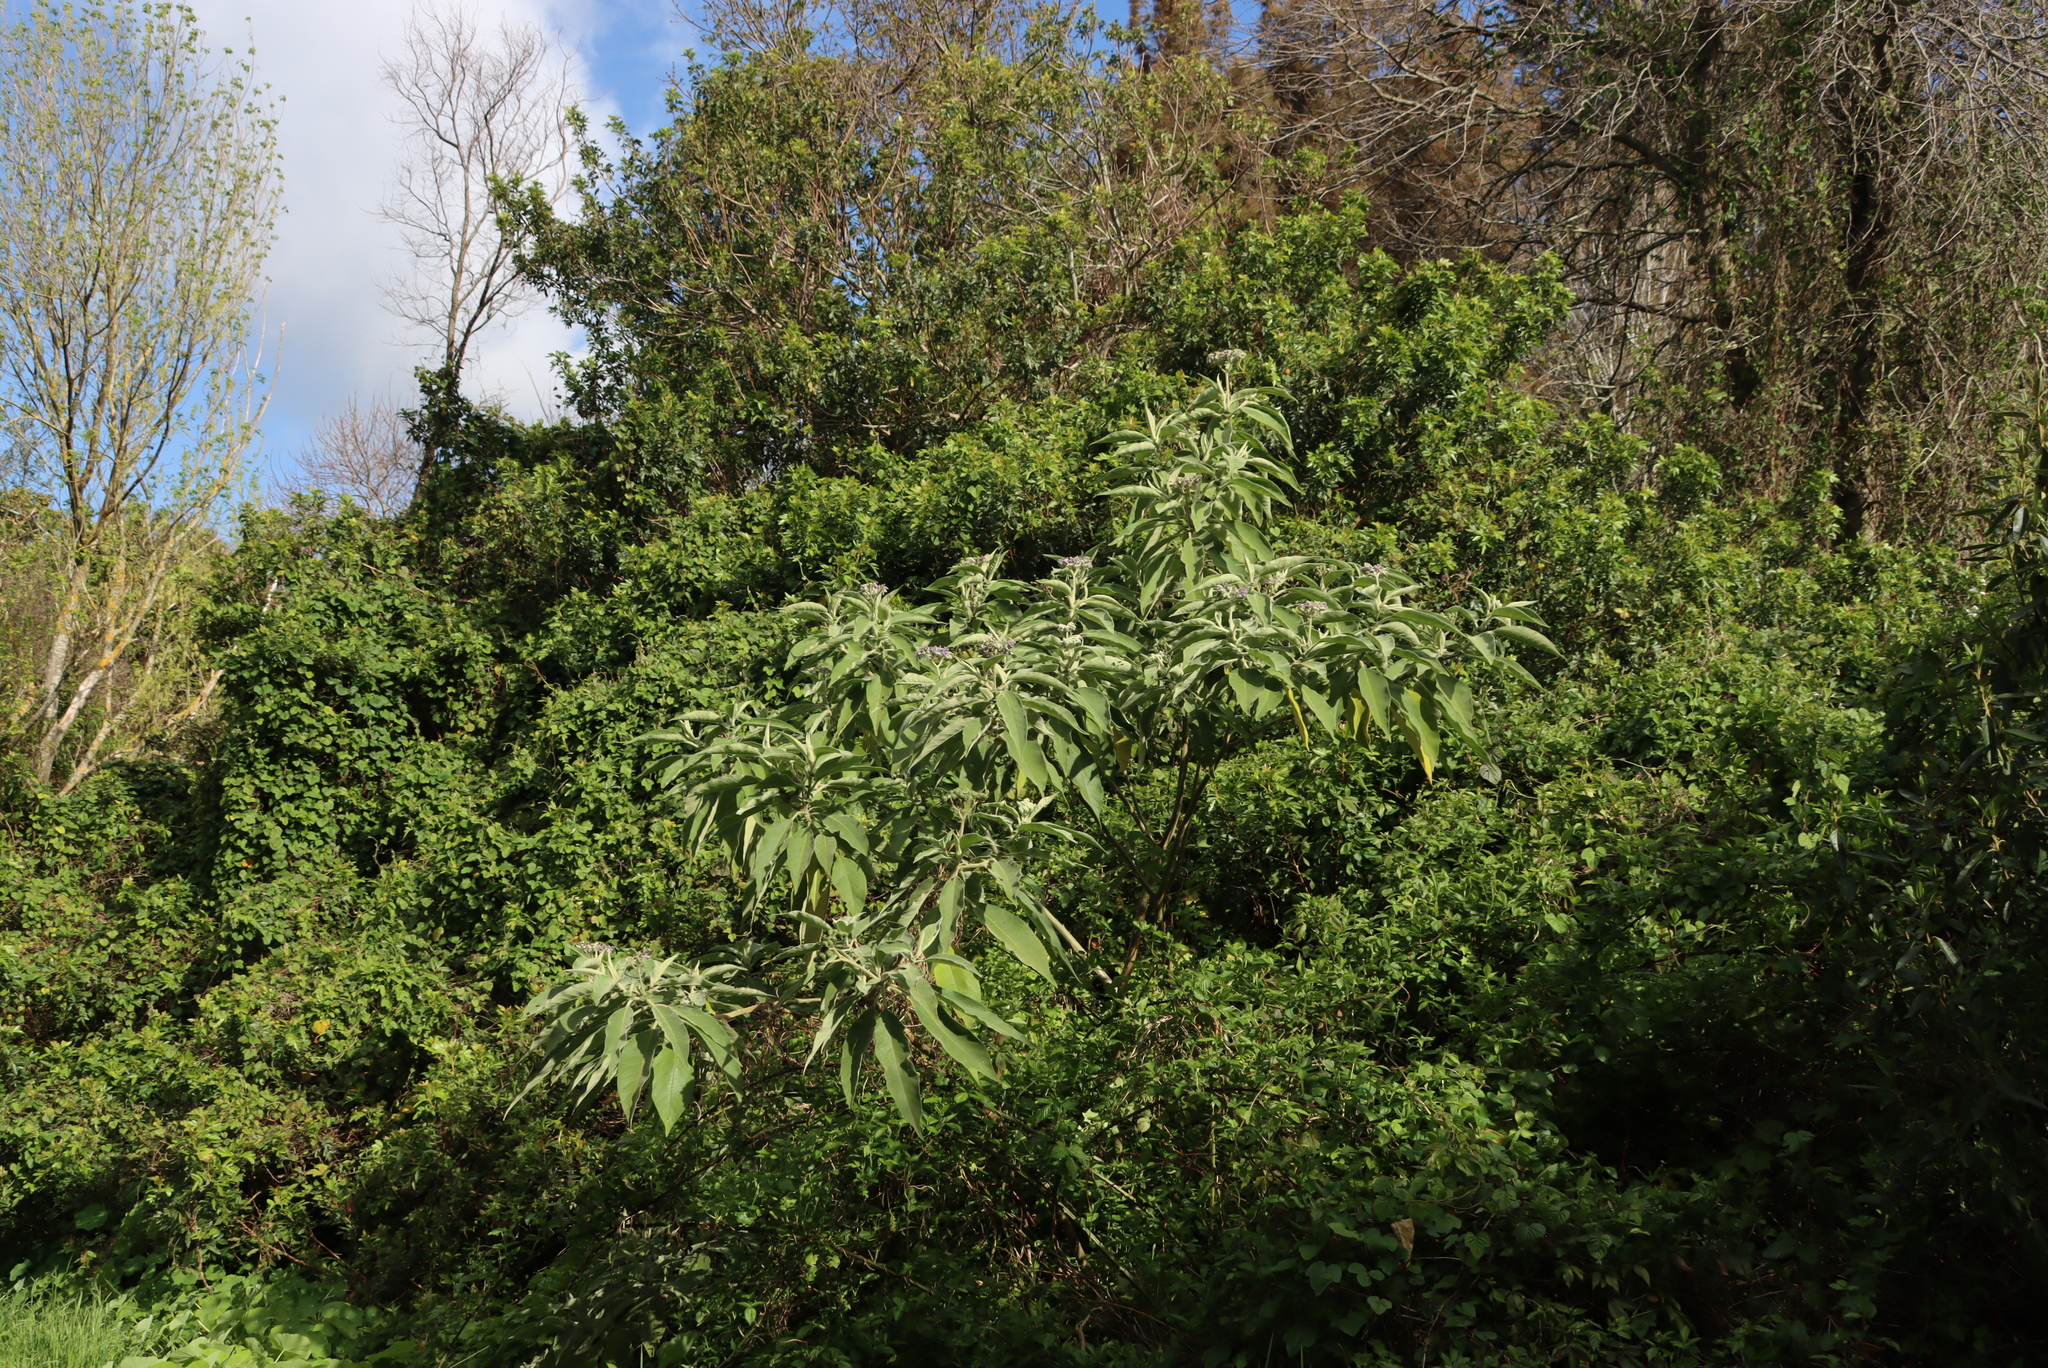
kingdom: Plantae
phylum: Tracheophyta
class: Magnoliopsida
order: Solanales
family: Solanaceae
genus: Solanum
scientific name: Solanum mauritianum
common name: Earleaf nightshade
